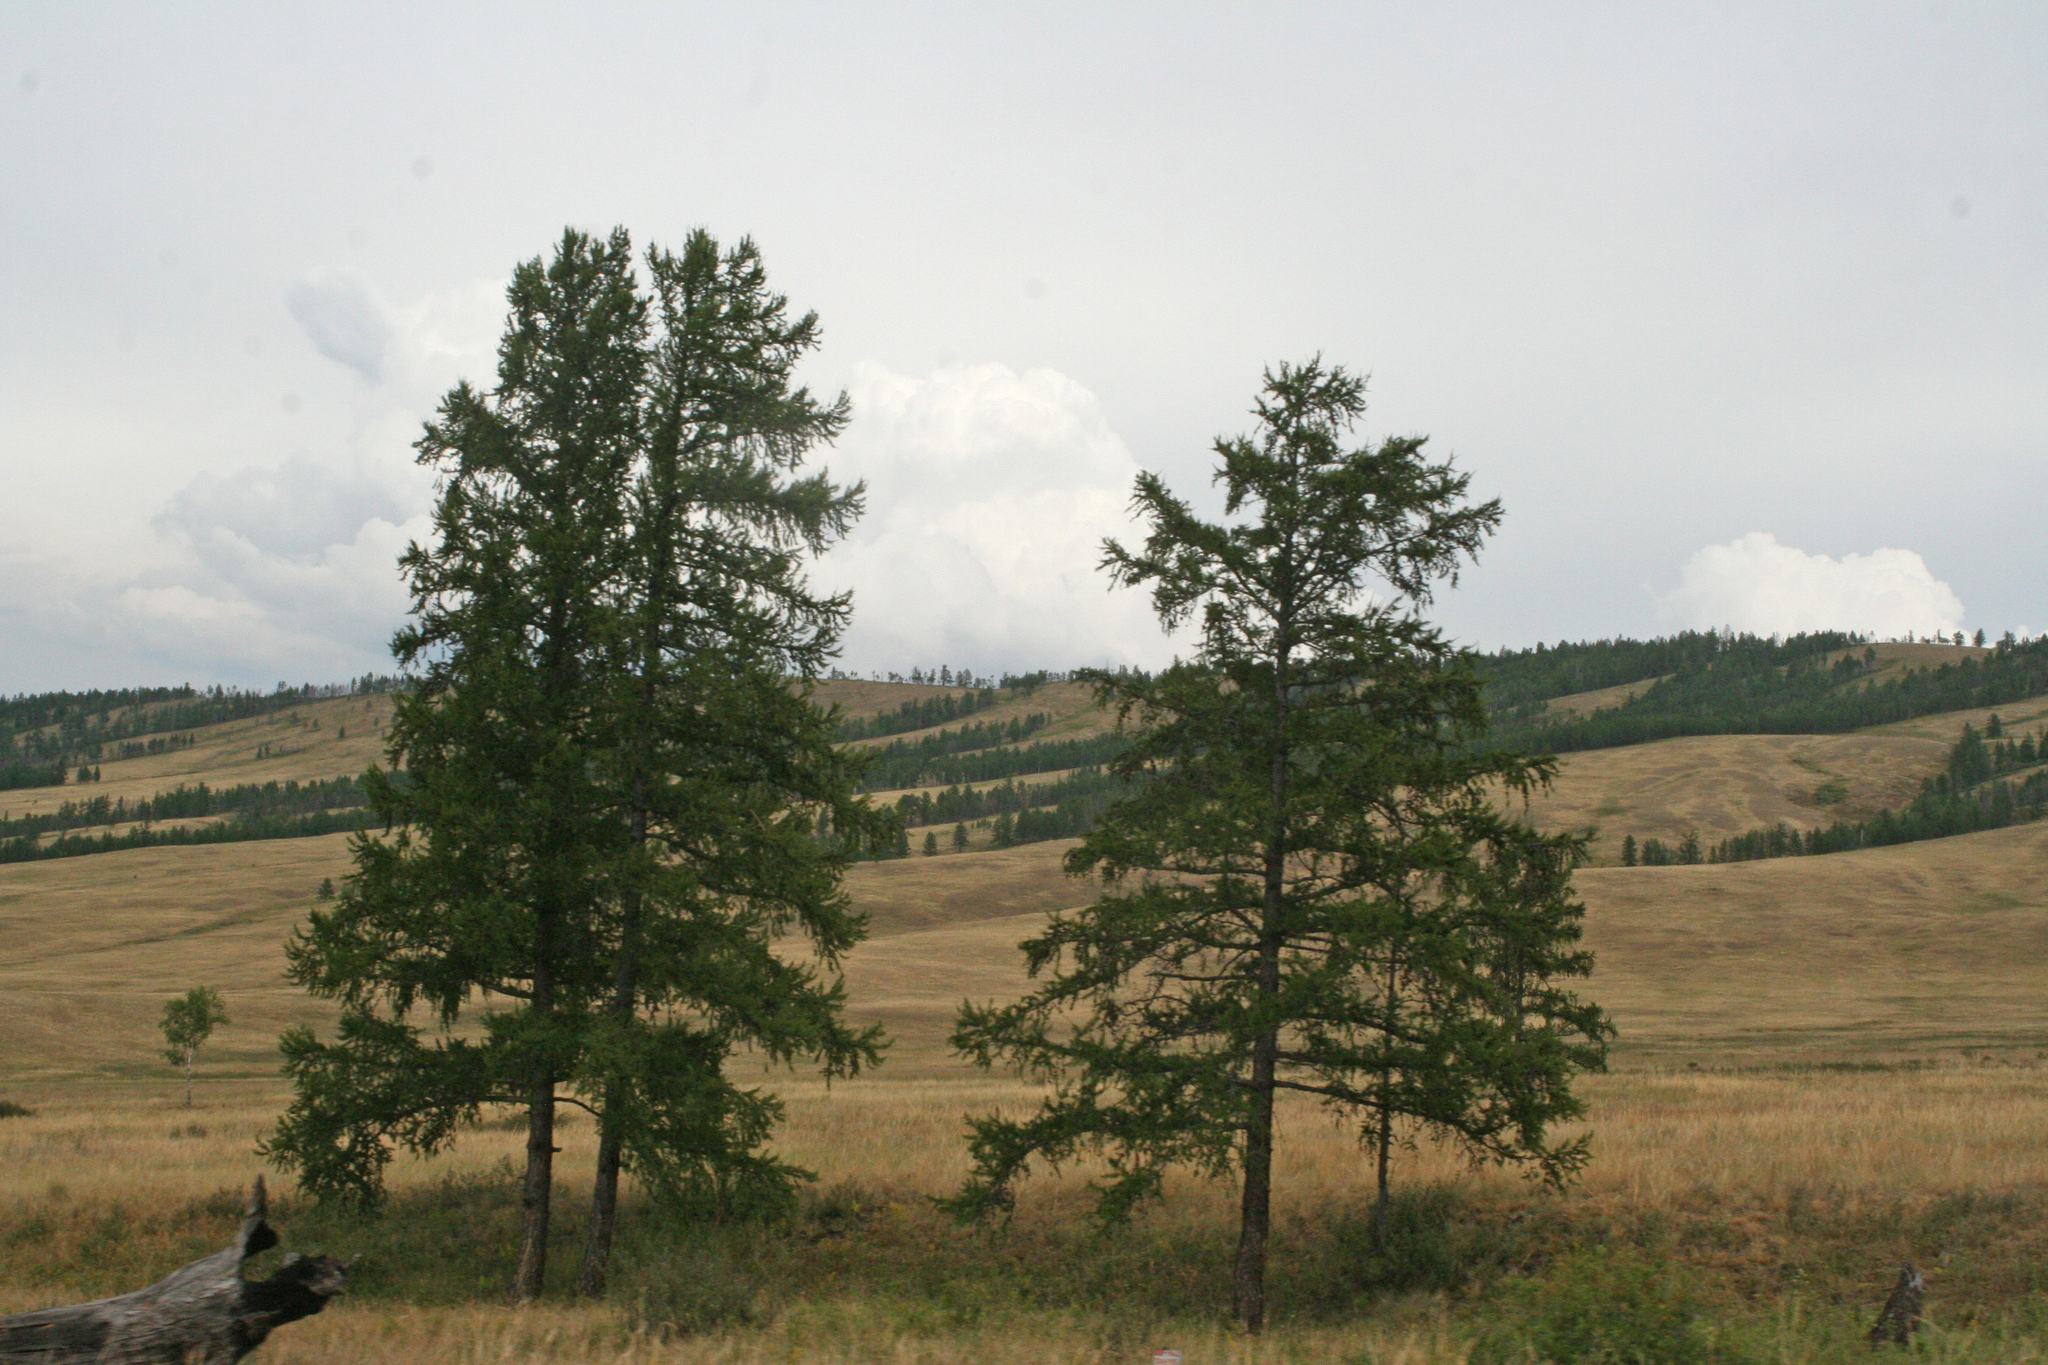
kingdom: Plantae
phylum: Tracheophyta
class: Pinopsida
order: Pinales
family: Pinaceae
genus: Larix
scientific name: Larix sibirica
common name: Siberian larch
